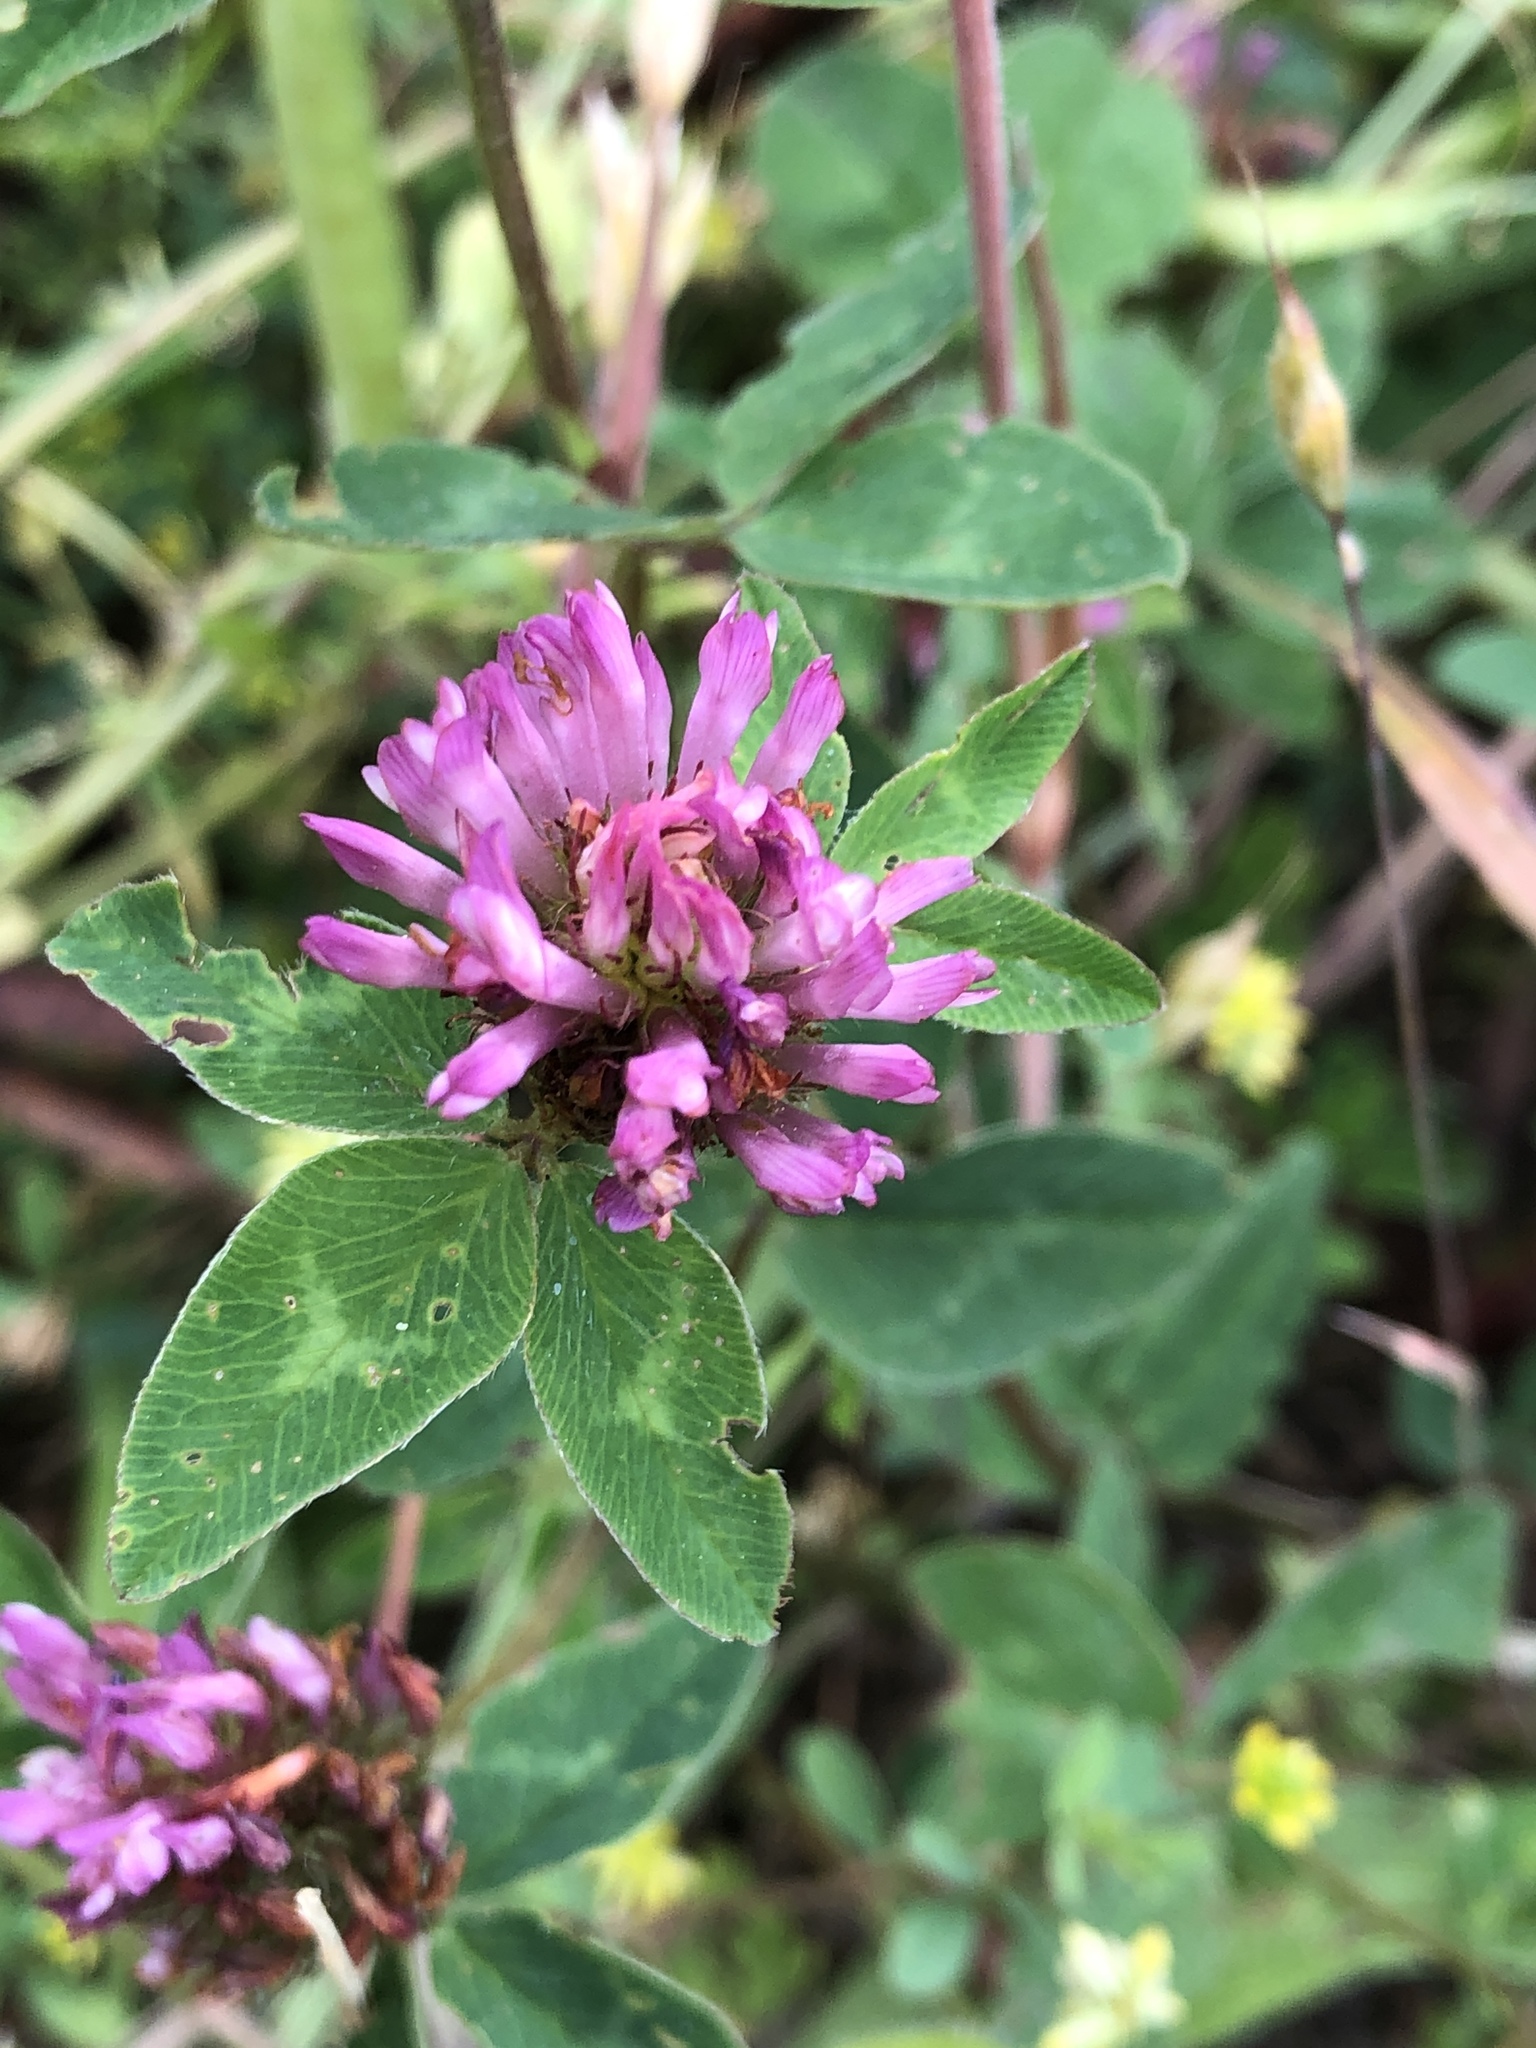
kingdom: Plantae
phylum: Tracheophyta
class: Magnoliopsida
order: Fabales
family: Fabaceae
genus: Trifolium
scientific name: Trifolium pratense
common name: Red clover
